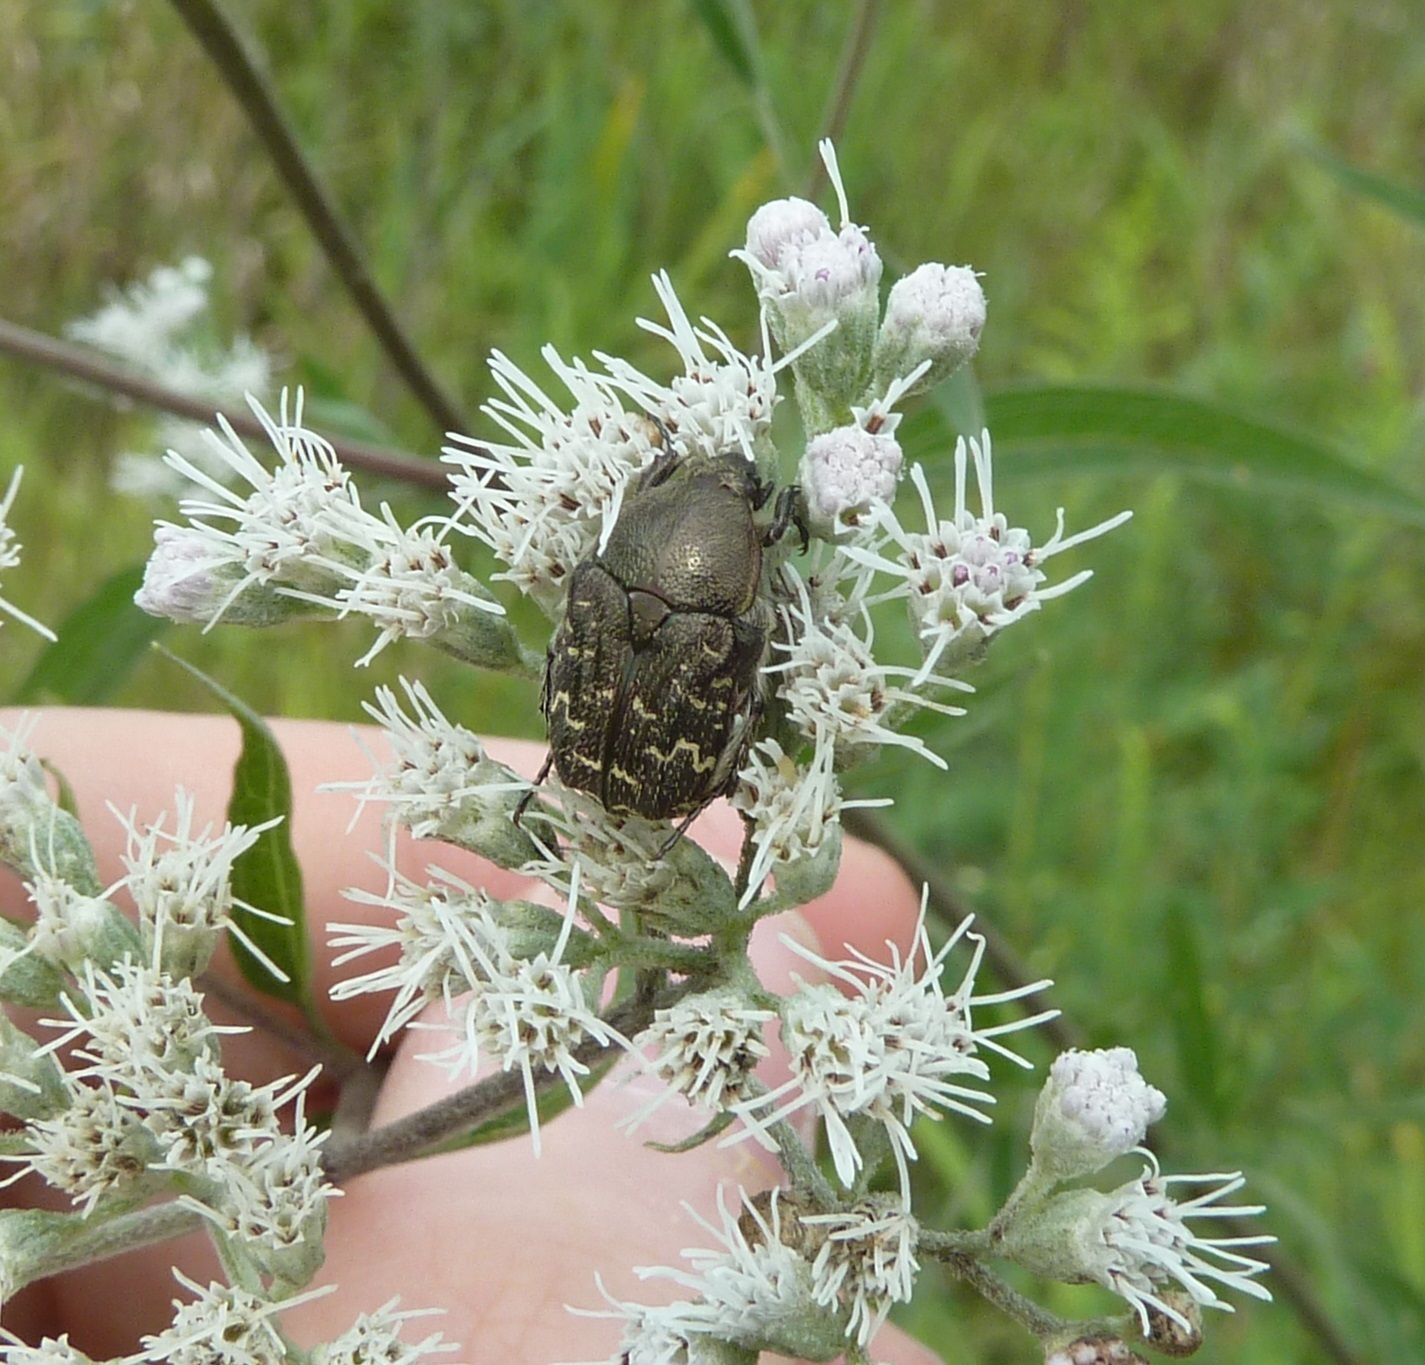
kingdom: Animalia
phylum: Arthropoda
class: Insecta
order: Coleoptera
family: Scarabaeidae
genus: Euphoria
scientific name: Euphoria sepulcralis
